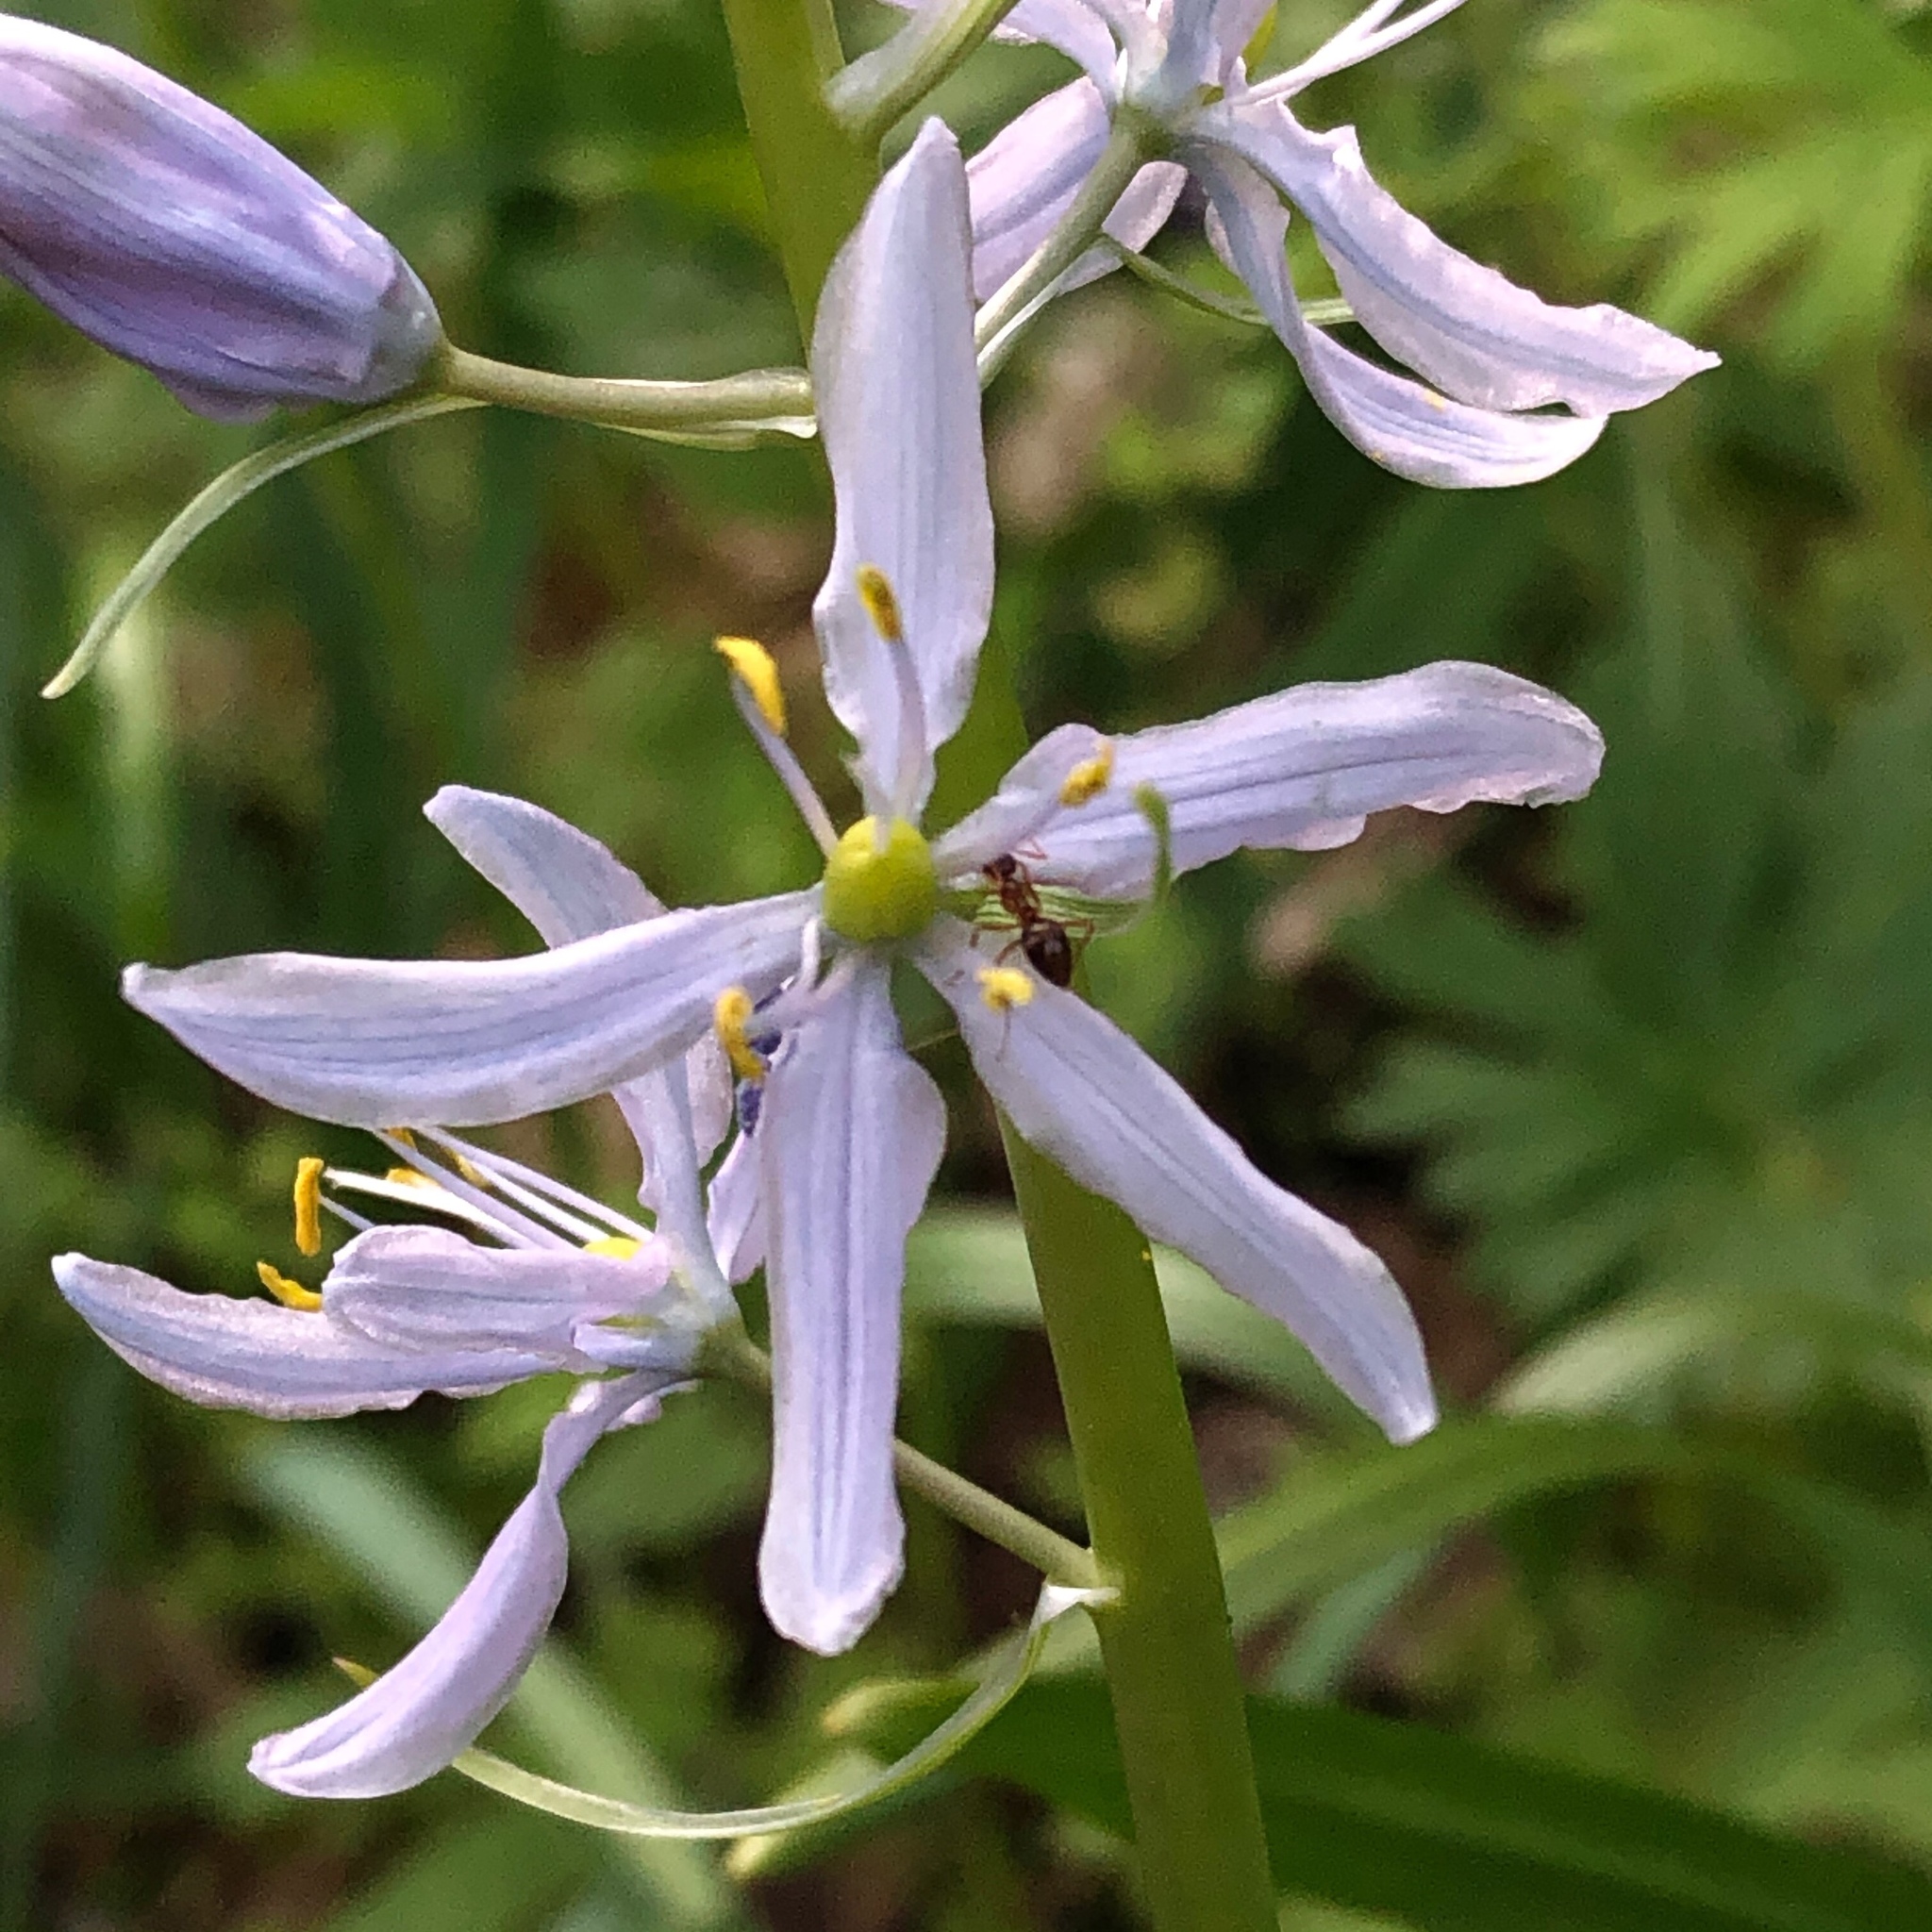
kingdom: Plantae
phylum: Tracheophyta
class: Liliopsida
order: Asparagales
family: Asparagaceae
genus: Camassia
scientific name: Camassia scilloides
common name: Wild hyacinth
